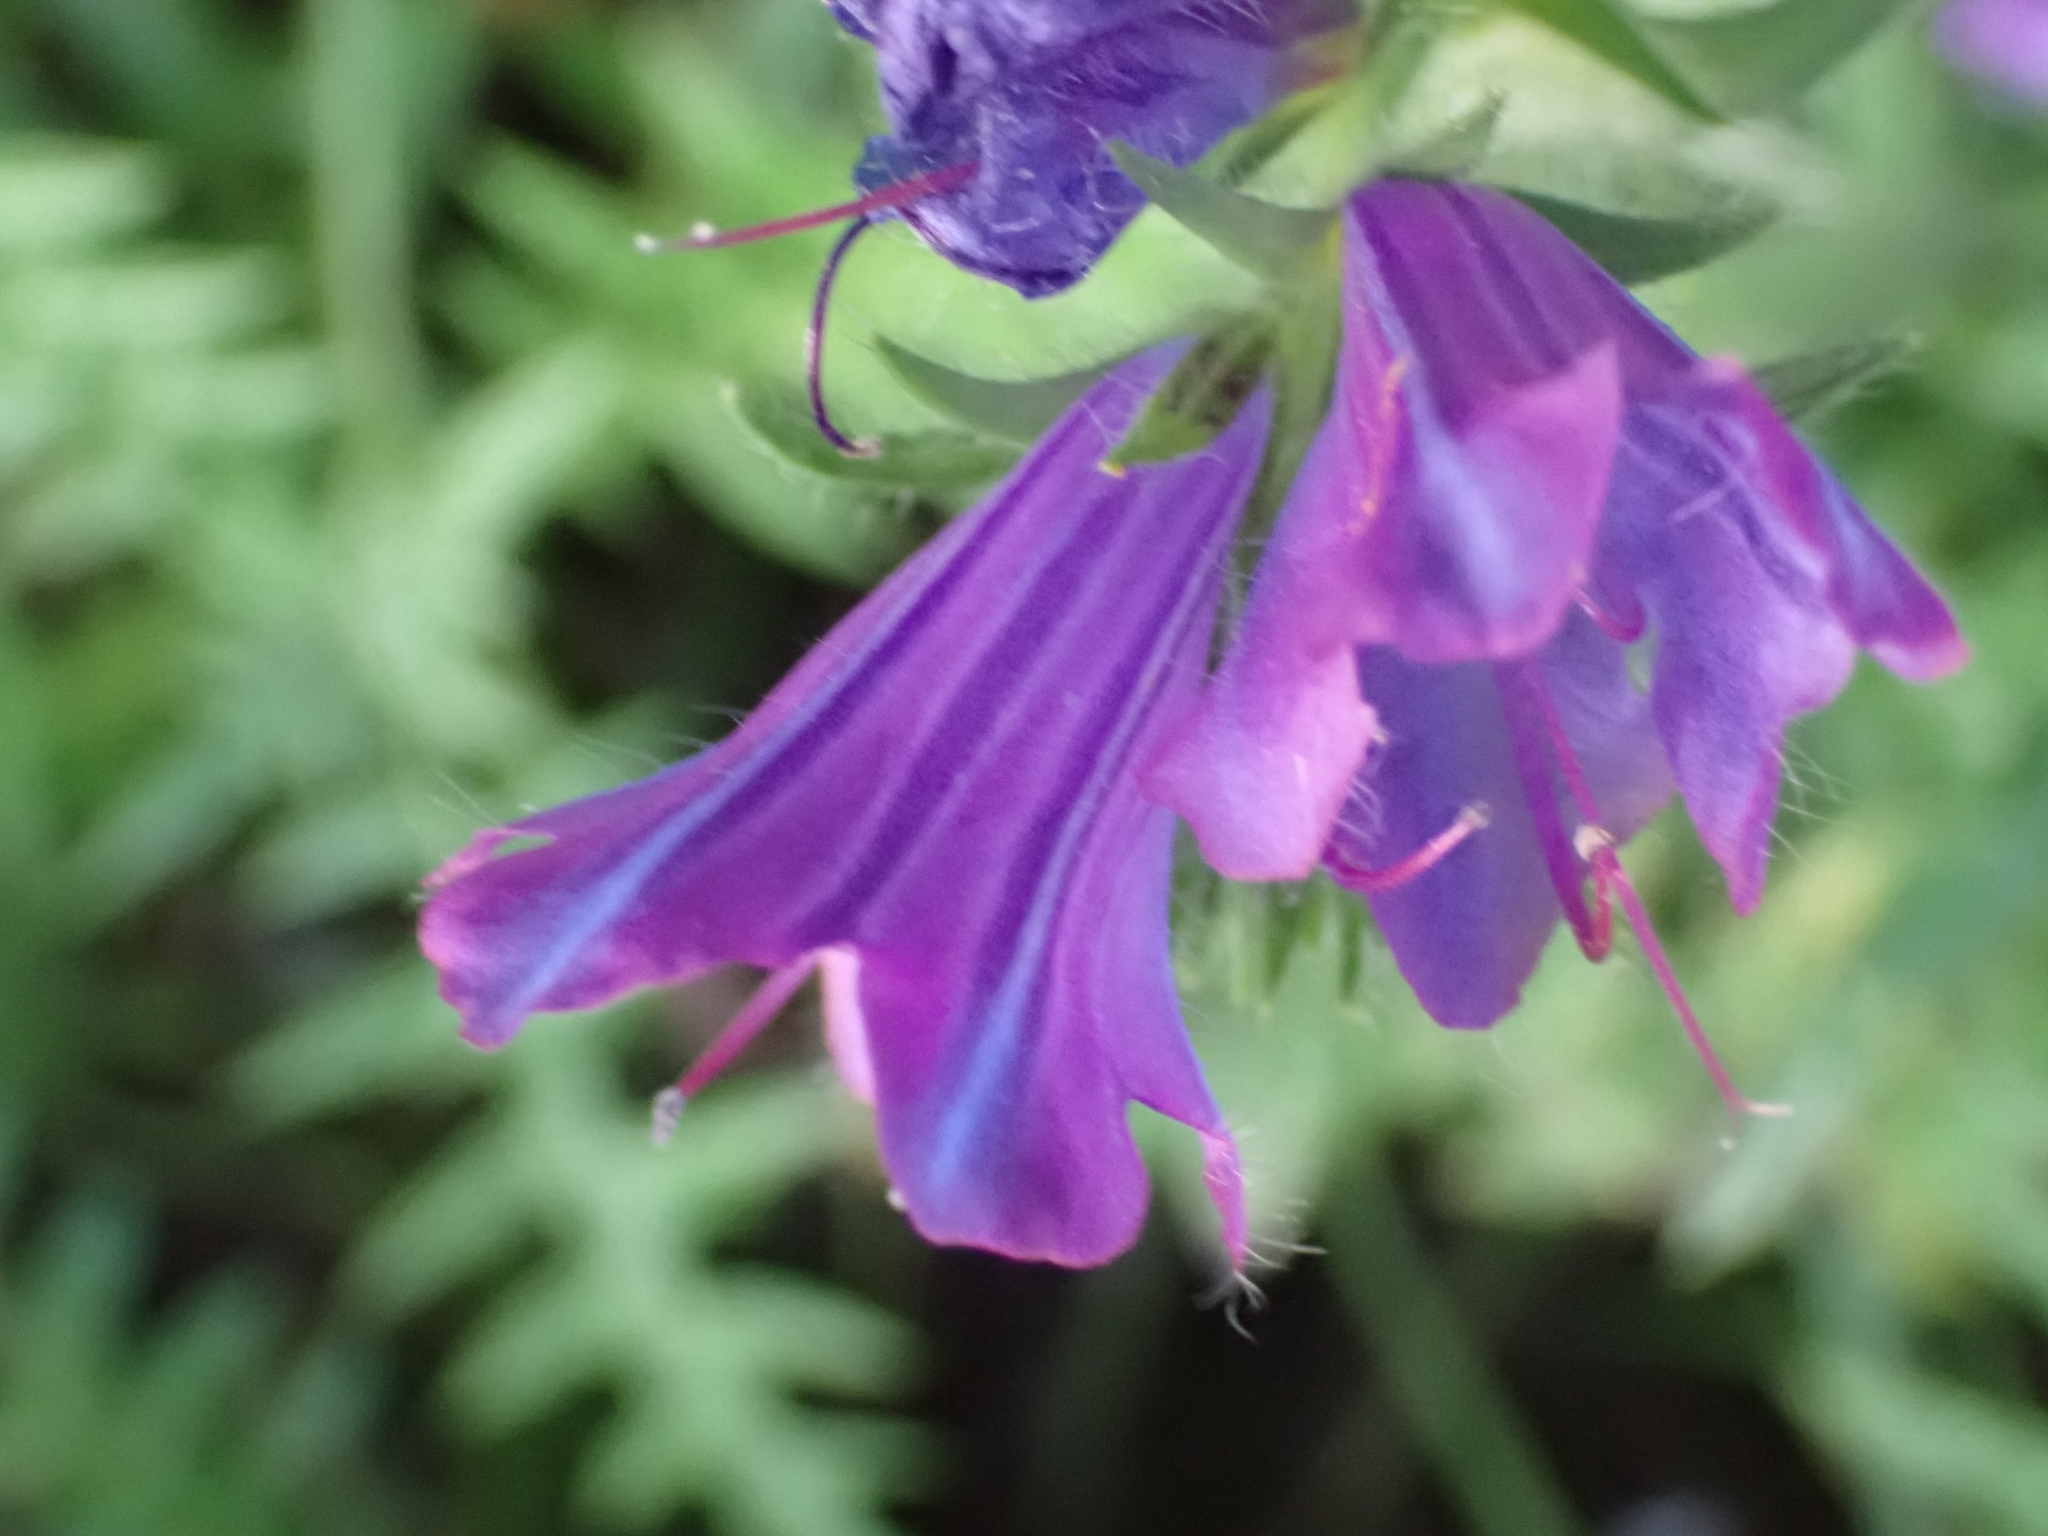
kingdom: Plantae
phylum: Tracheophyta
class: Magnoliopsida
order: Boraginales
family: Boraginaceae
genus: Echium
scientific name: Echium plantagineum
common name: Purple viper's-bugloss
